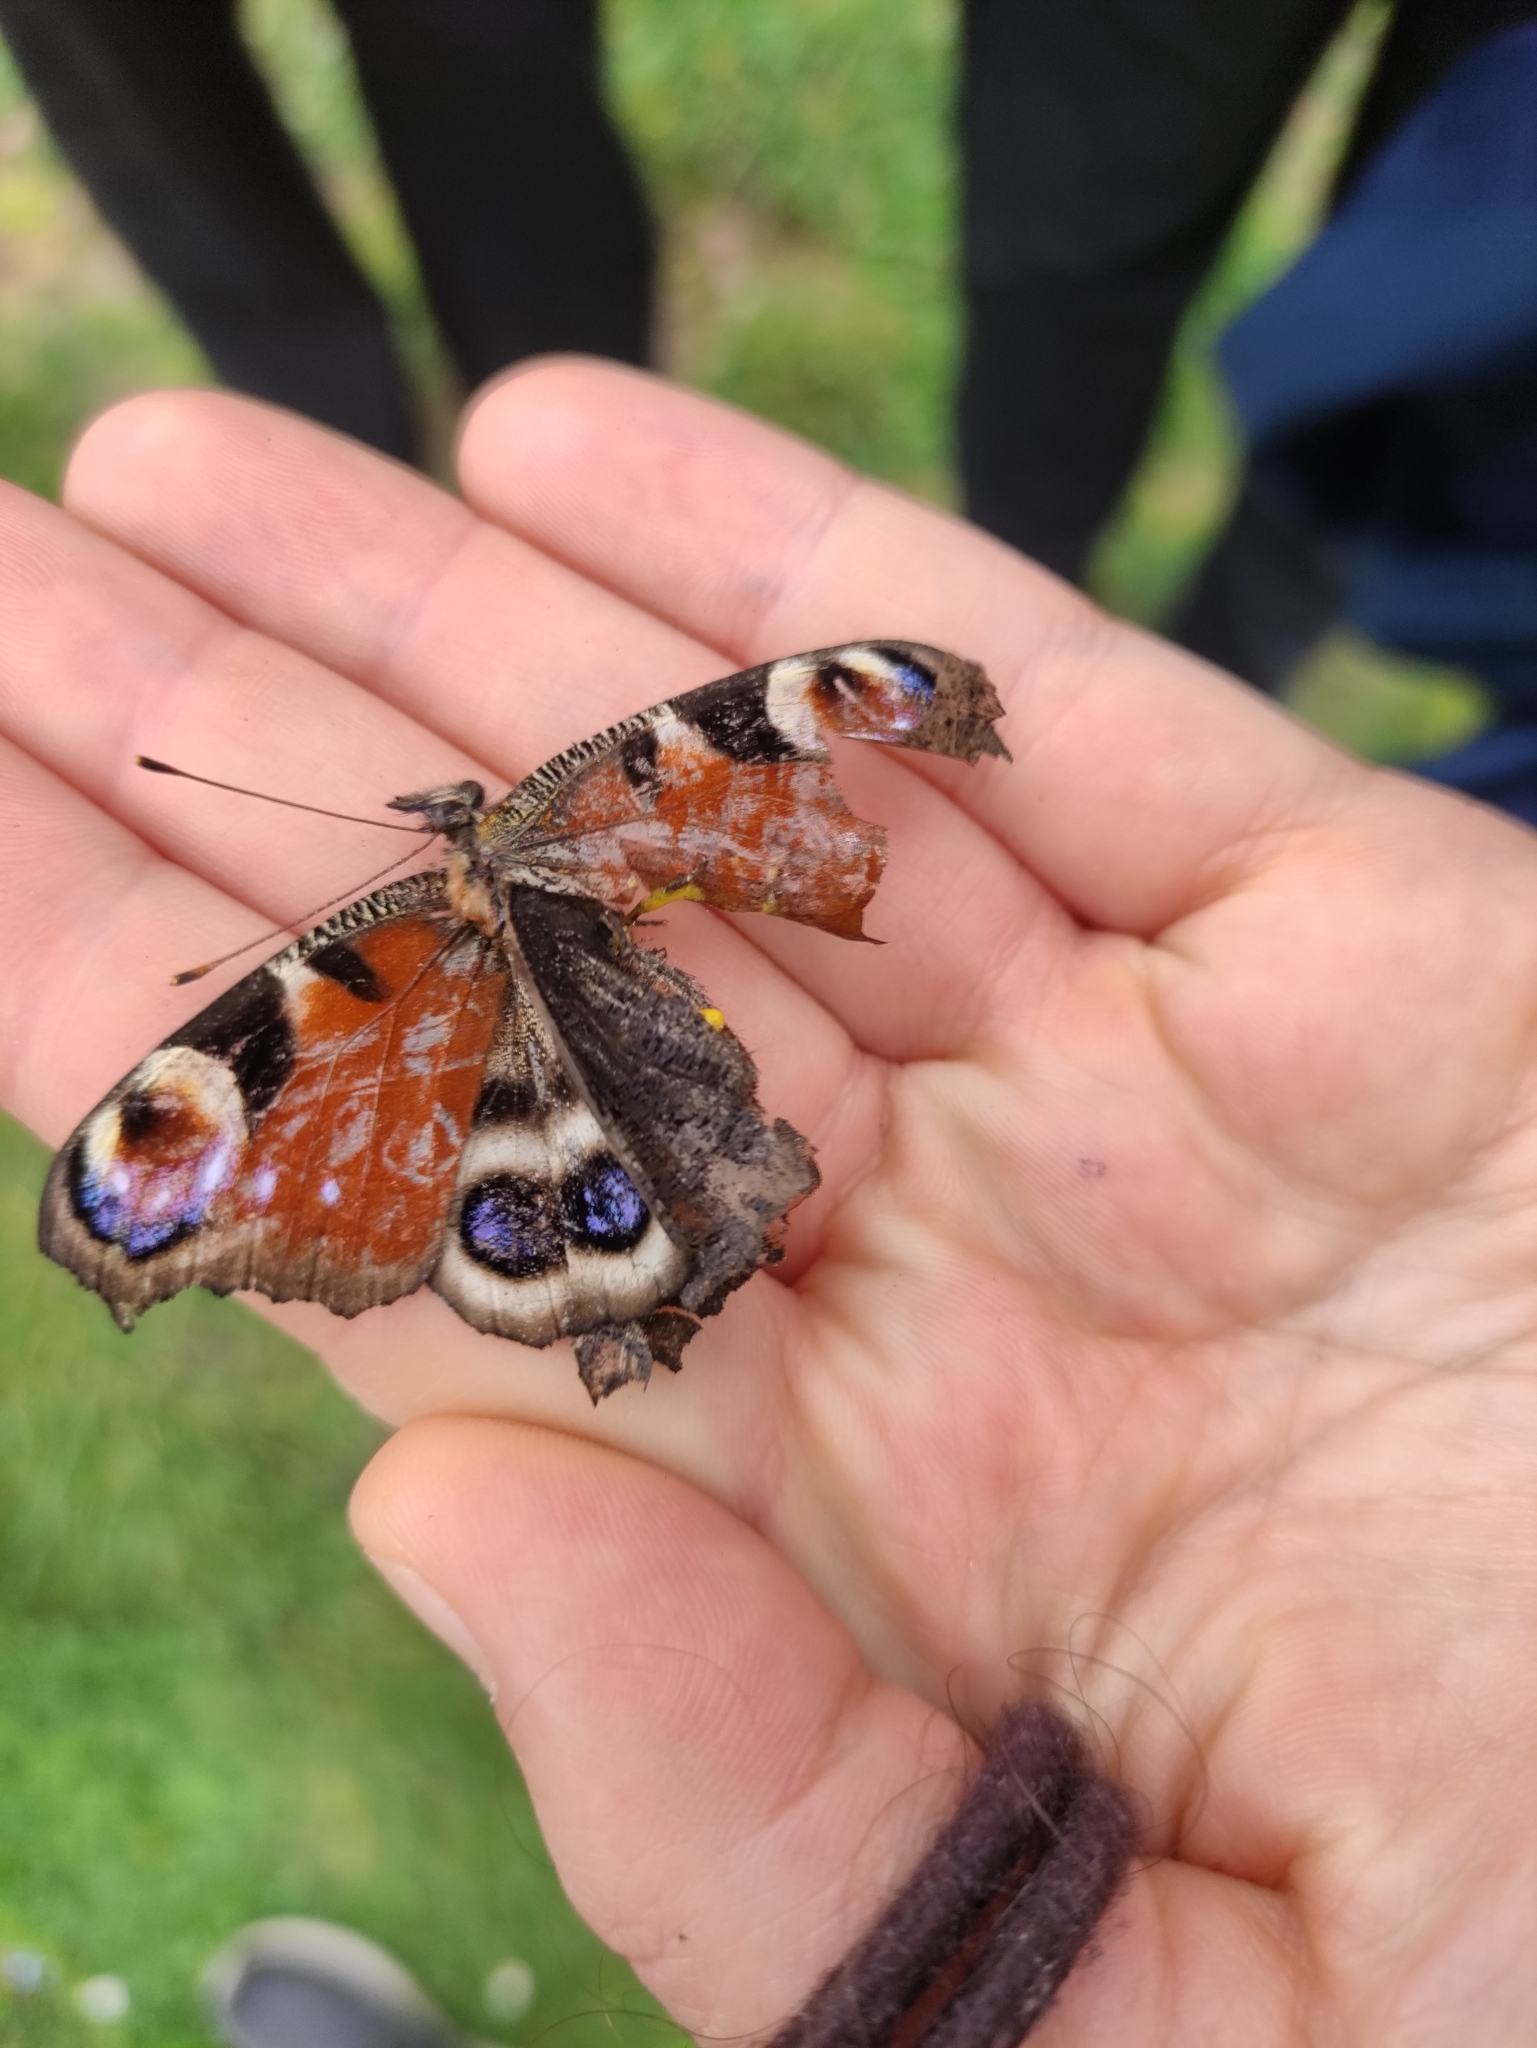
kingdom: Animalia
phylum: Arthropoda
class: Insecta
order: Lepidoptera
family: Nymphalidae
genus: Aglais
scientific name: Aglais io
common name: Peacock
